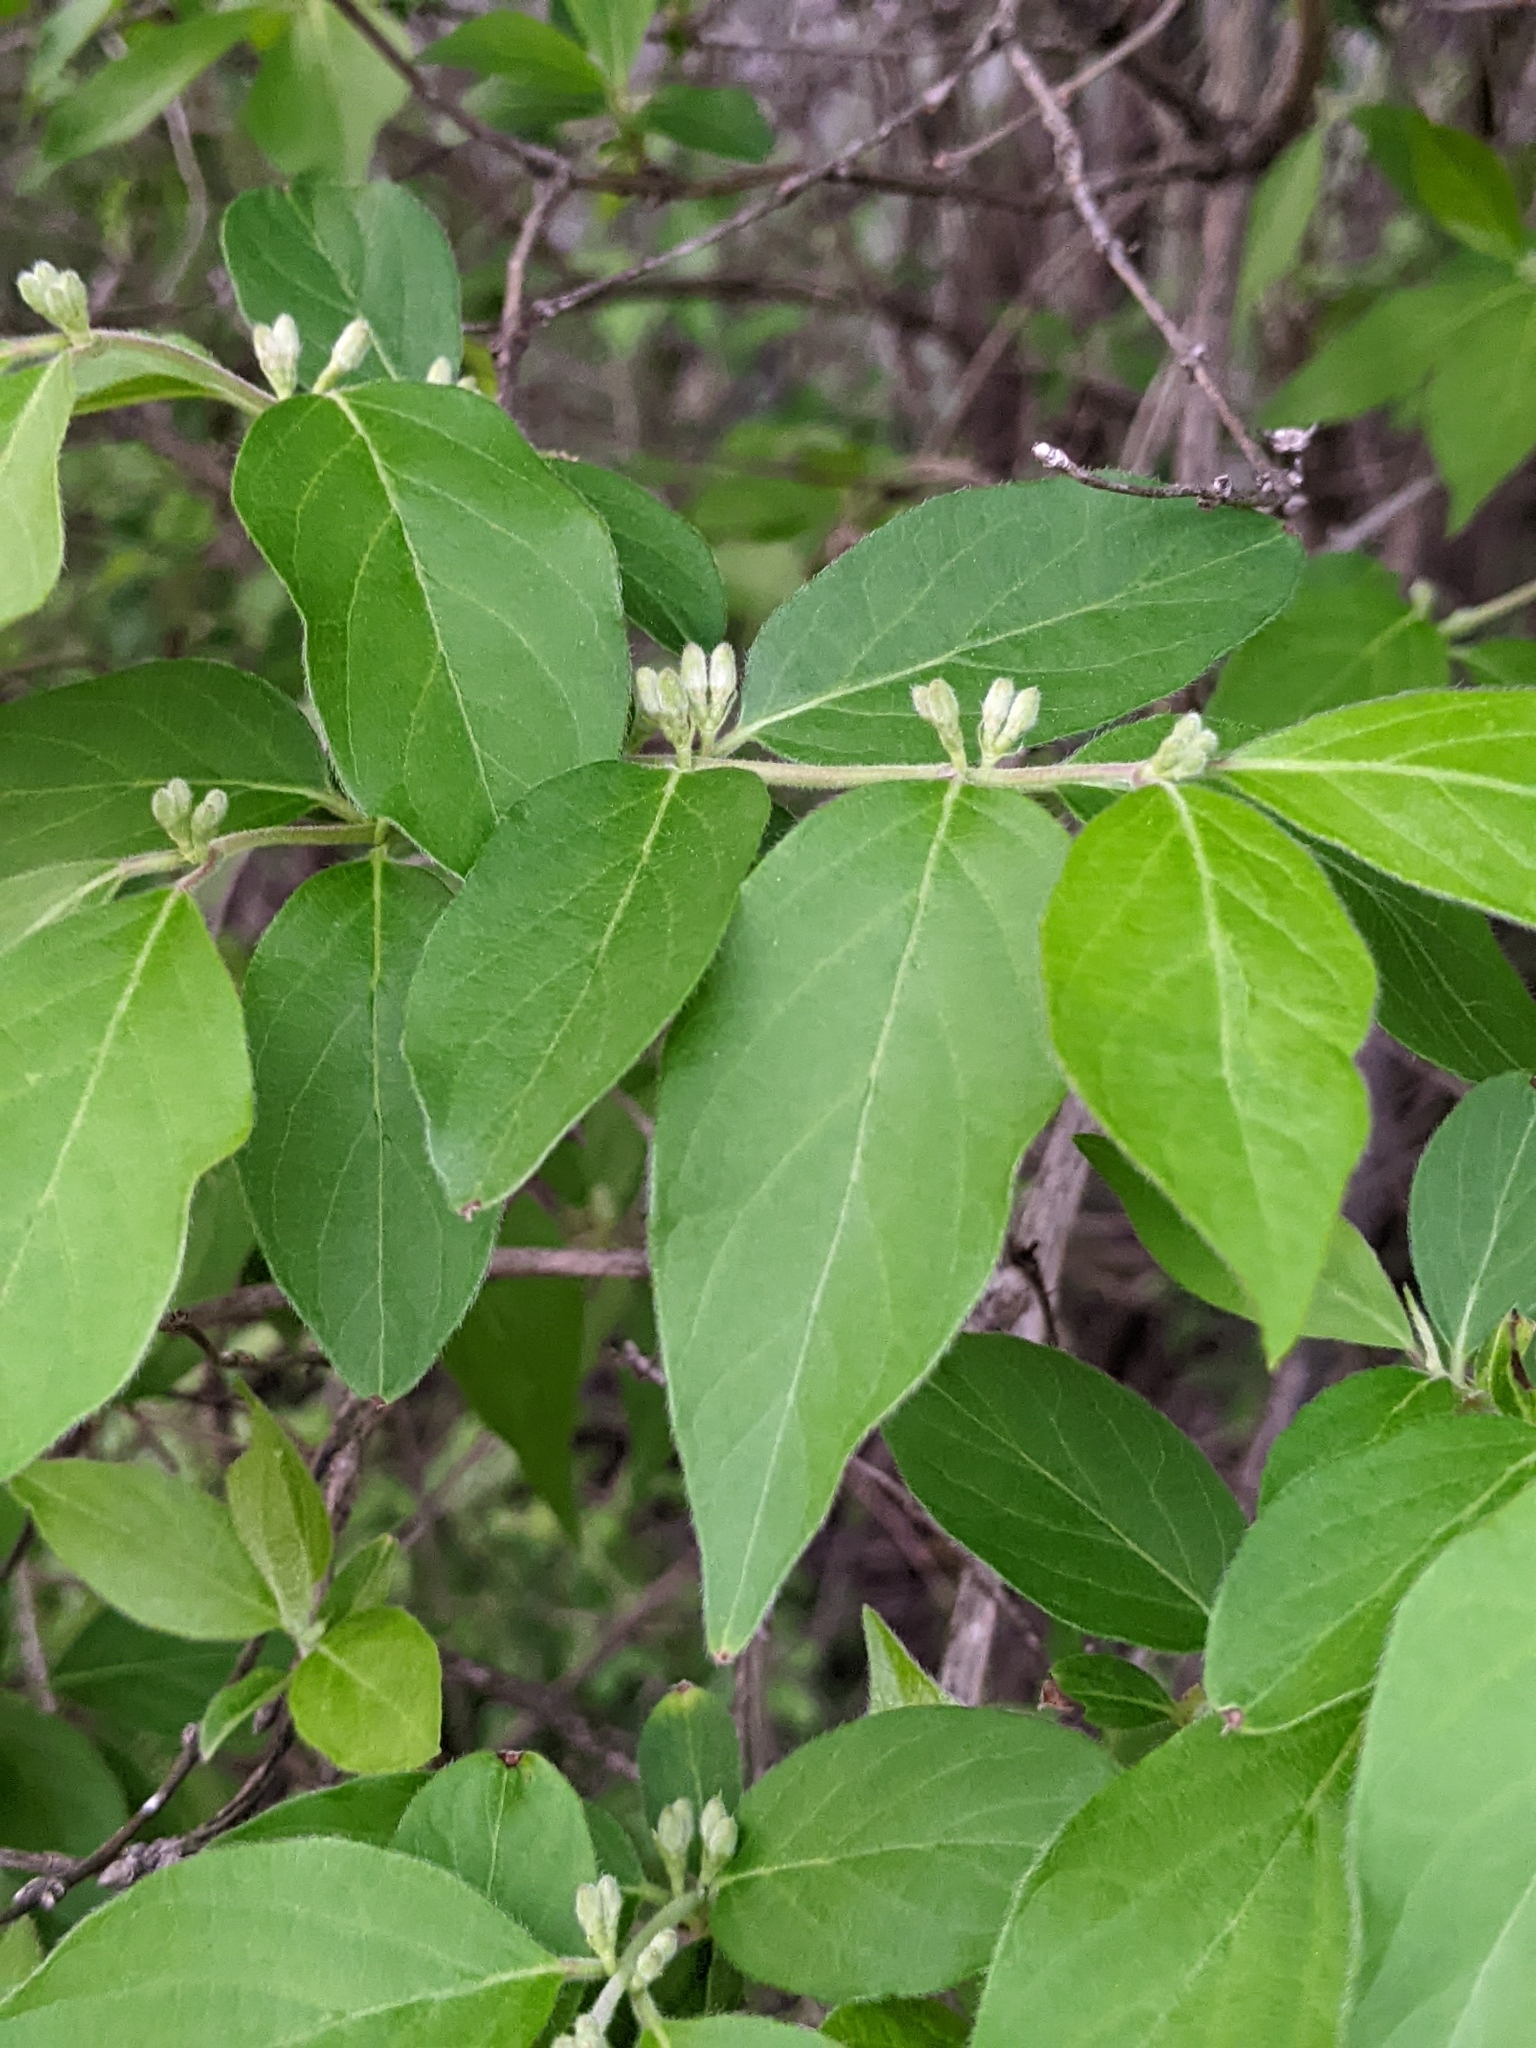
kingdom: Plantae
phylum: Tracheophyta
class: Magnoliopsida
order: Dipsacales
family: Caprifoliaceae
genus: Lonicera
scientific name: Lonicera maackii
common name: Amur honeysuckle
